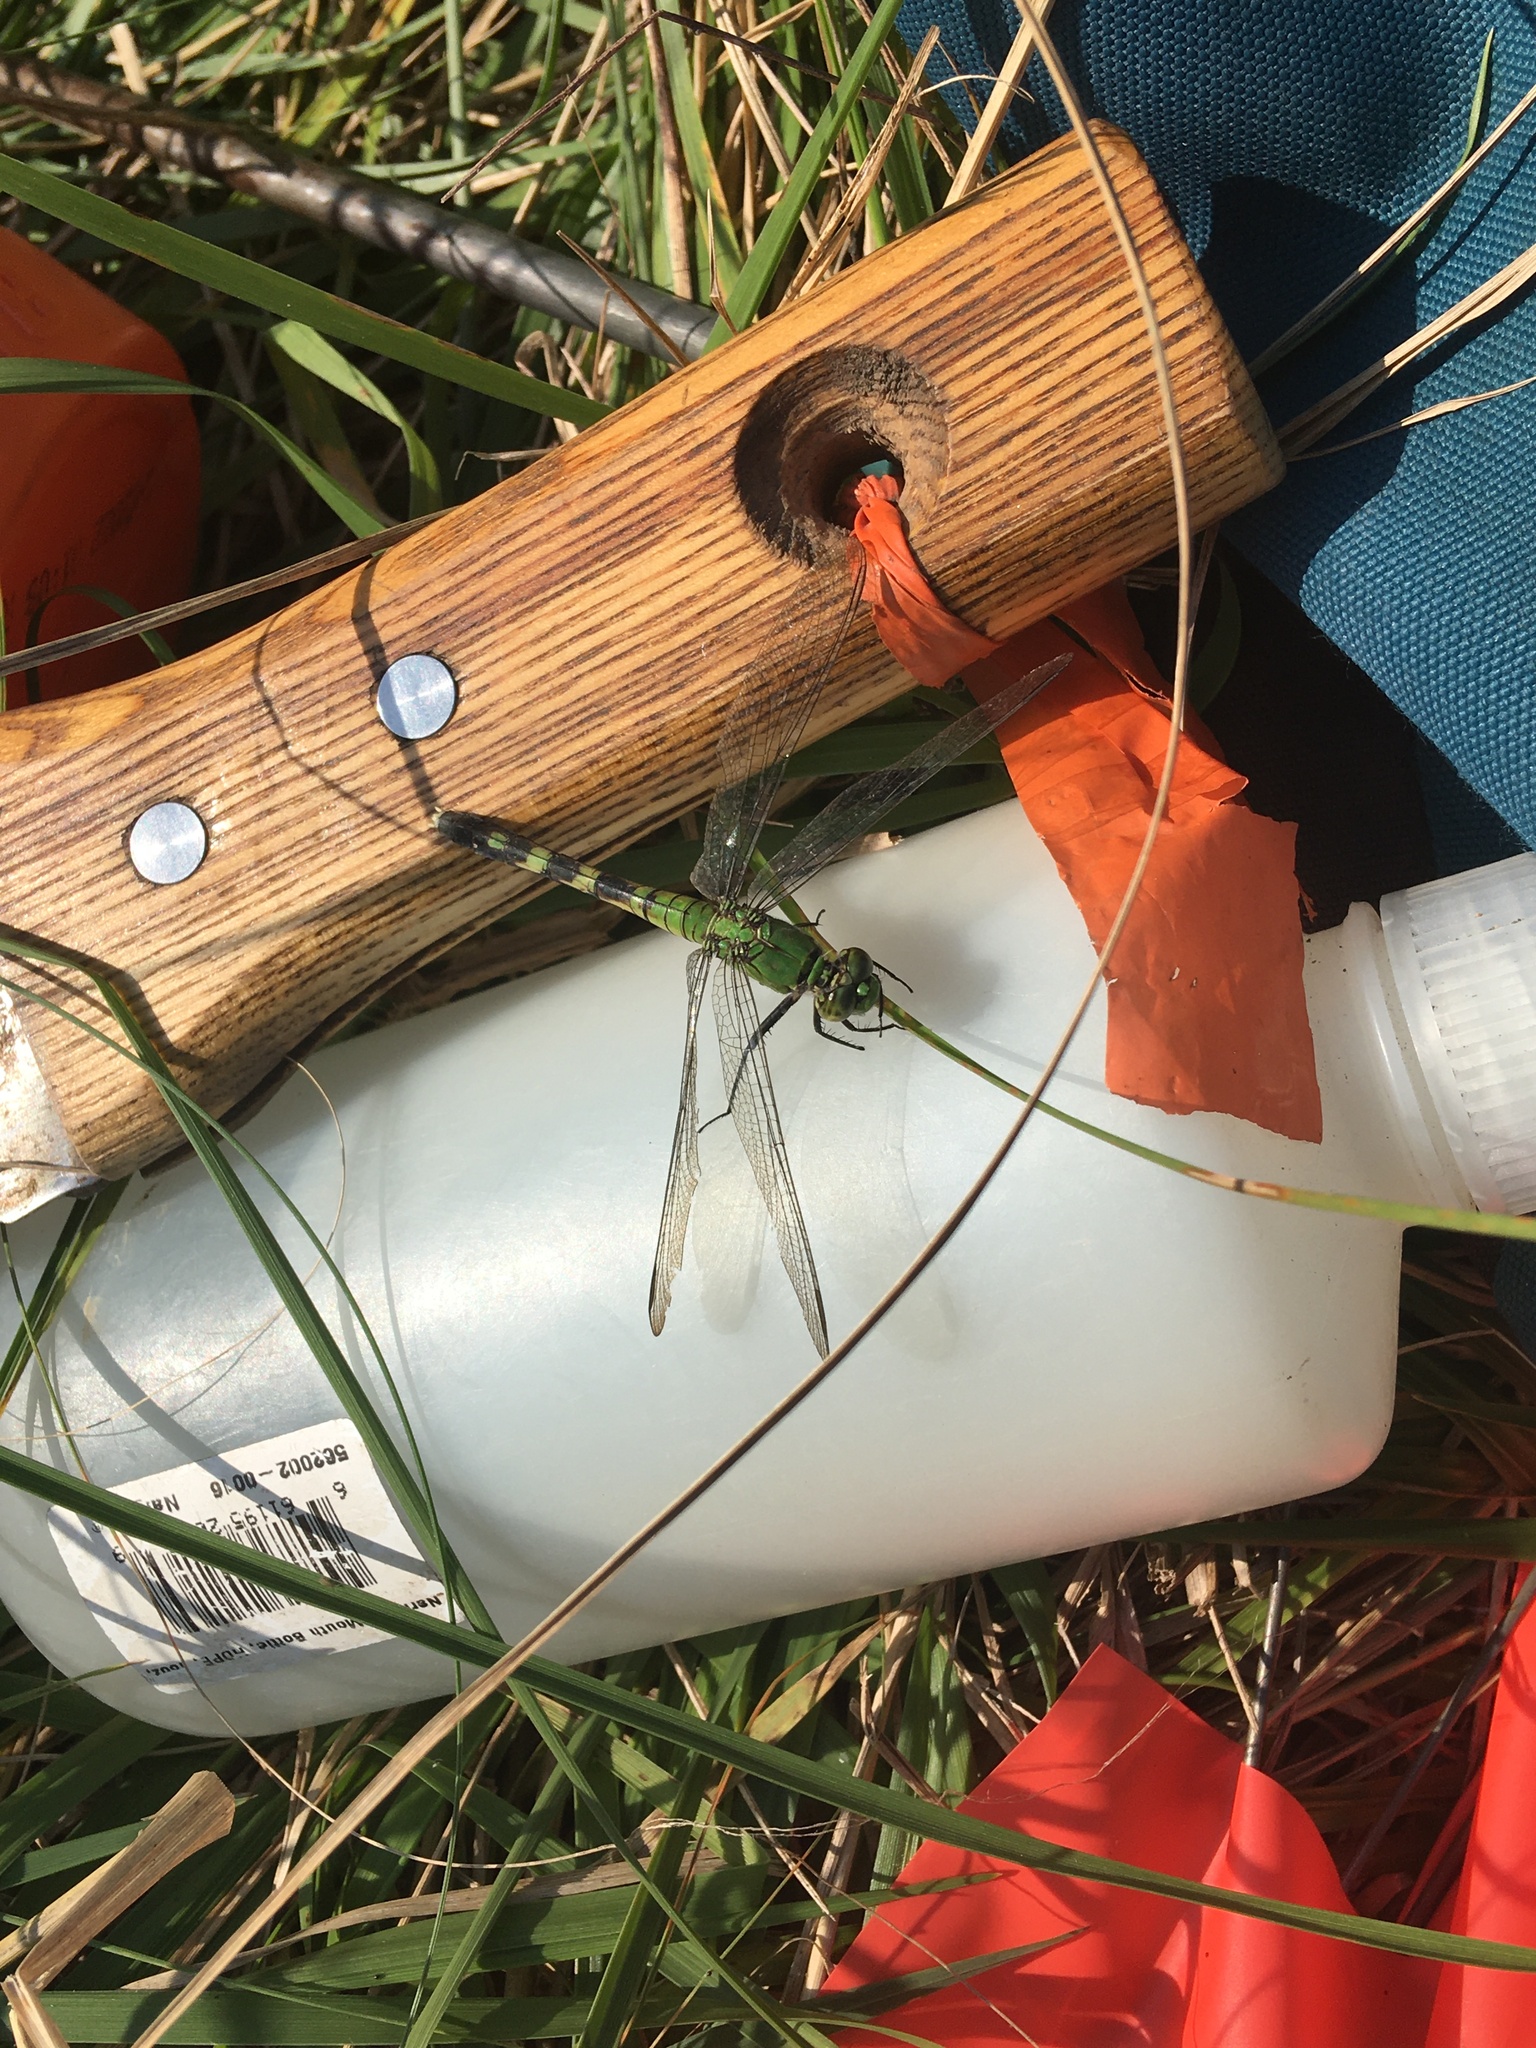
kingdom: Animalia
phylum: Arthropoda
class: Insecta
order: Odonata
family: Libellulidae
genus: Erythemis
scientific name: Erythemis simplicicollis
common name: Eastern pondhawk
